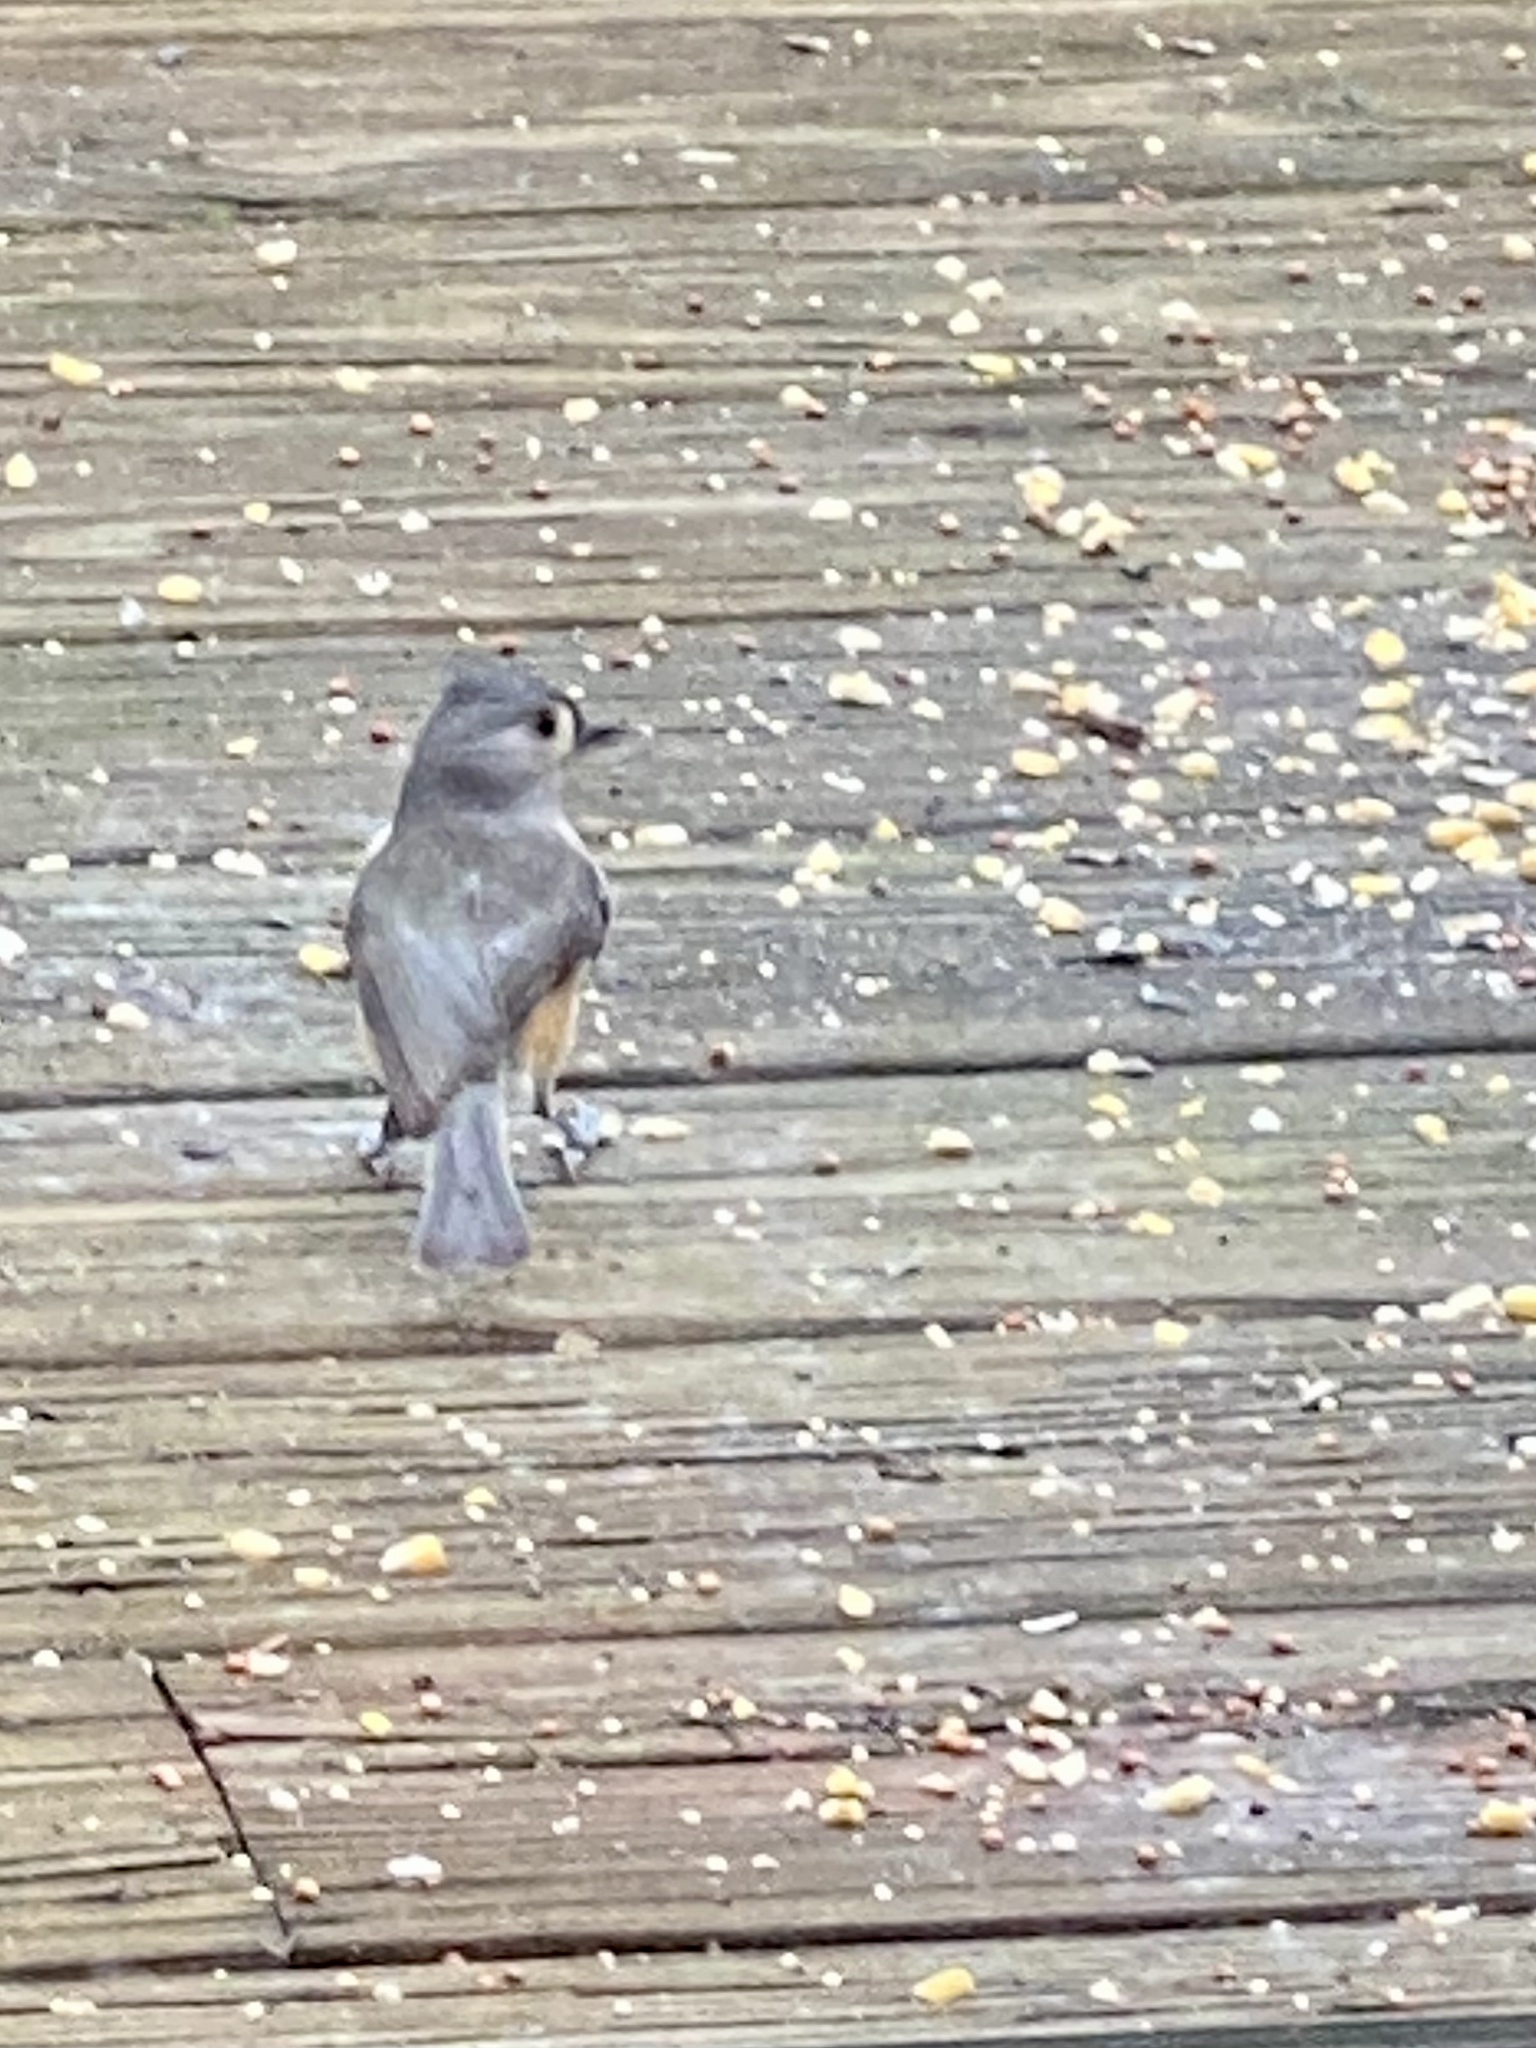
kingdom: Animalia
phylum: Chordata
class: Aves
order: Passeriformes
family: Paridae
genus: Baeolophus
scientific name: Baeolophus bicolor
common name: Tufted titmouse
